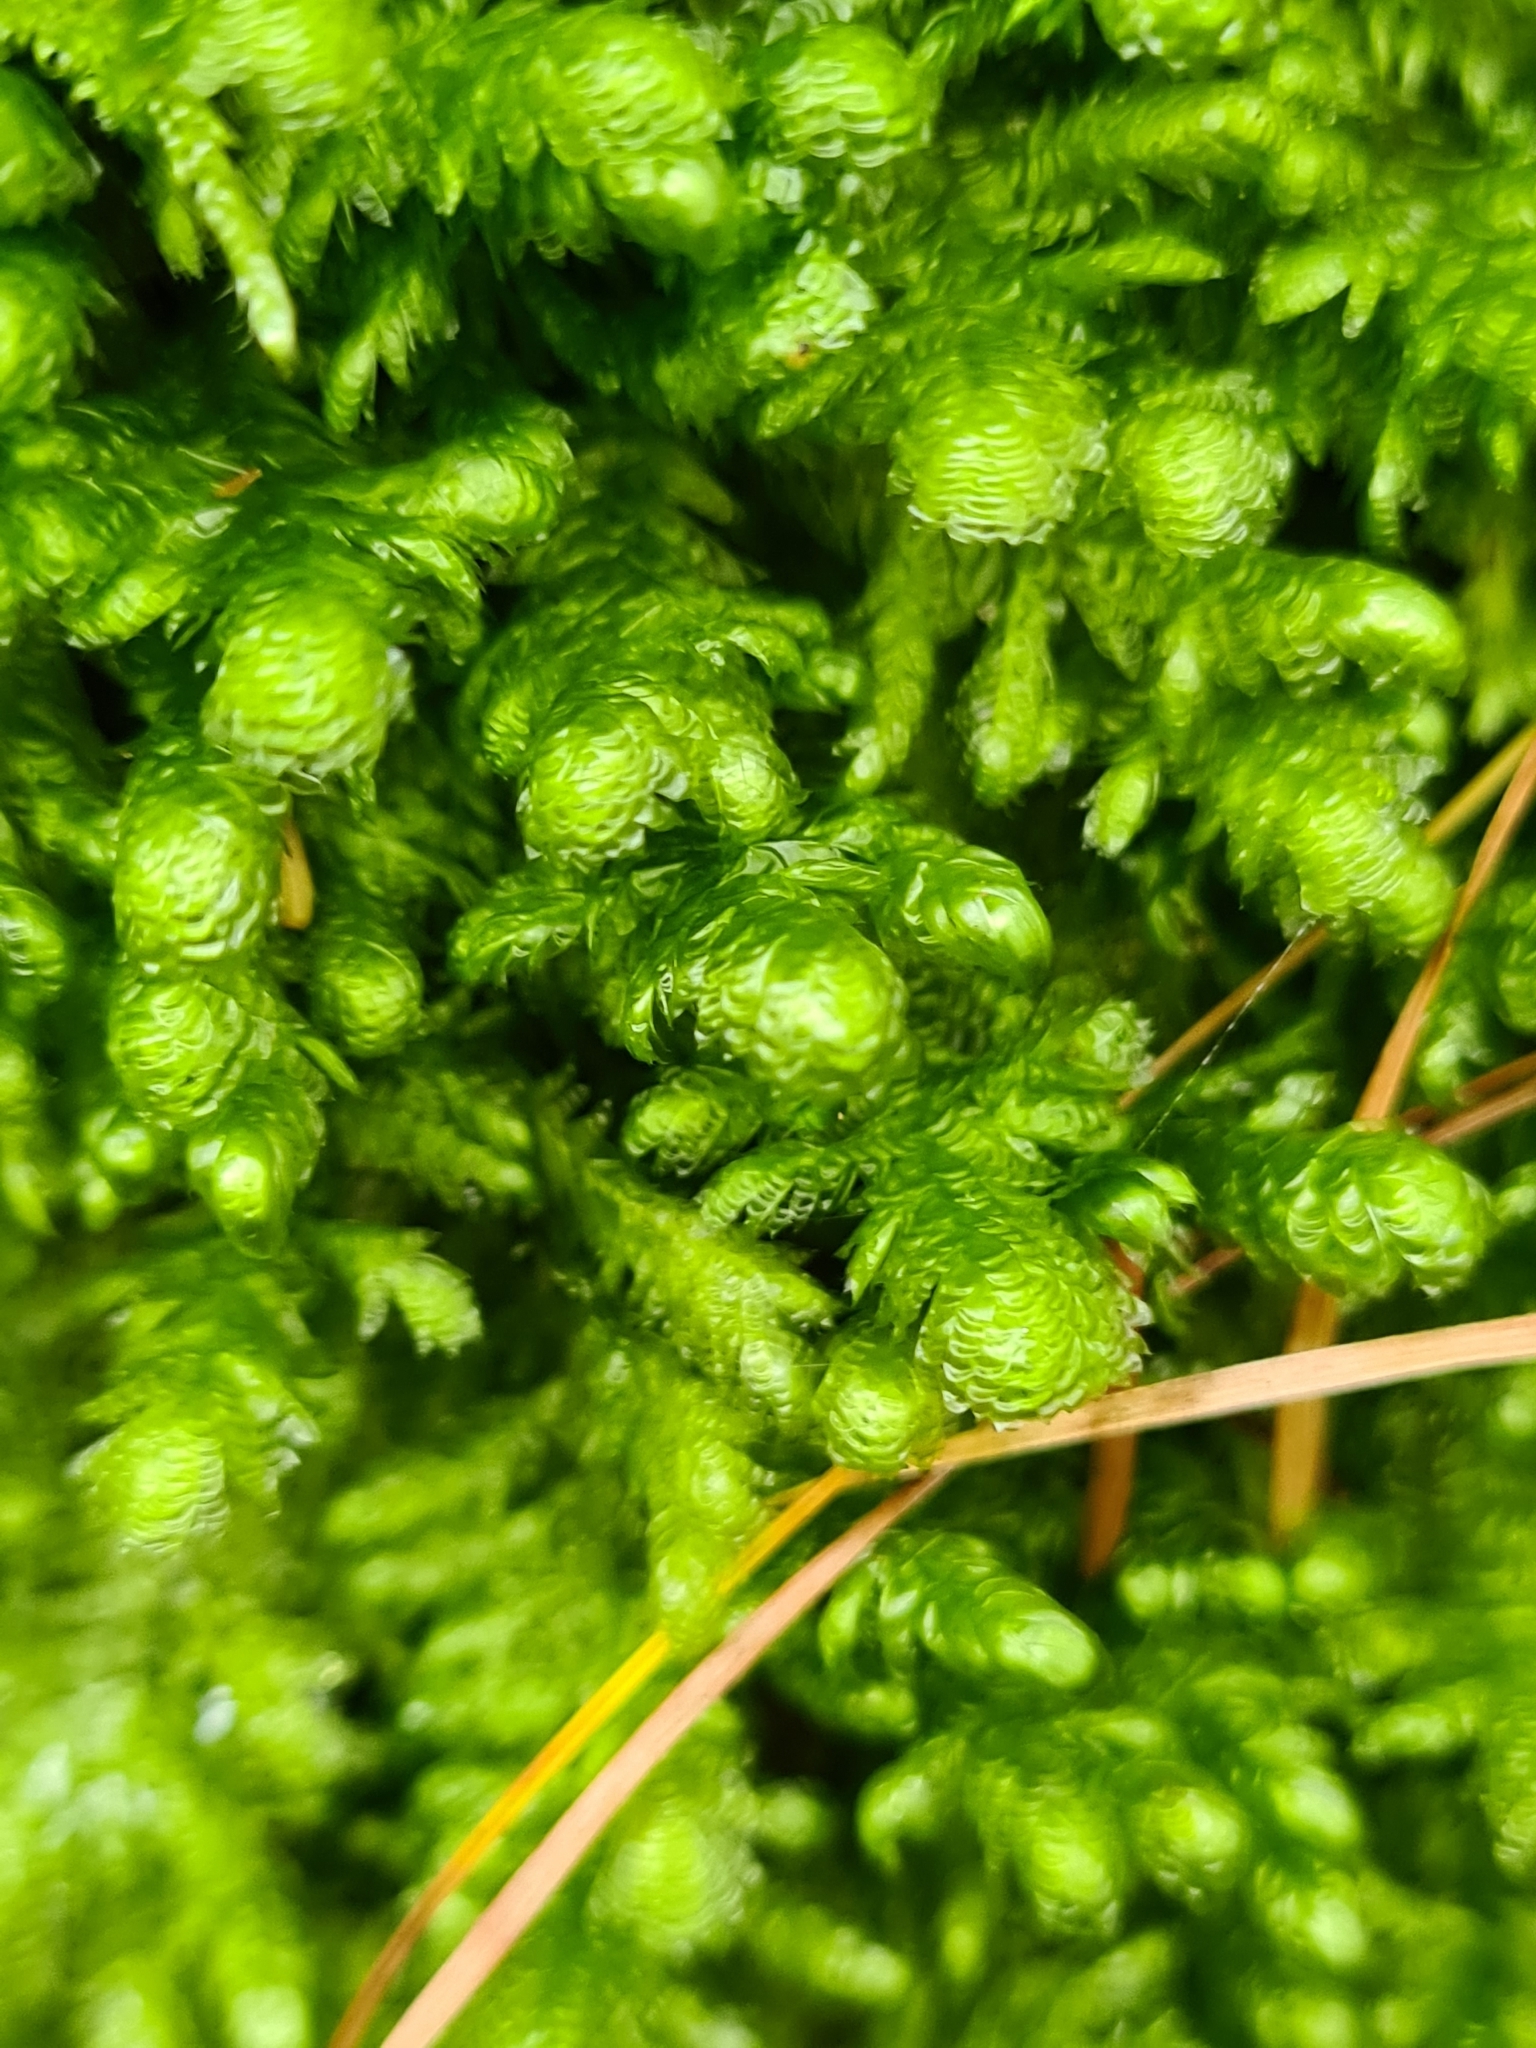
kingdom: Plantae
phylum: Bryophyta
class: Bryopsida
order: Hypnales
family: Neckeraceae
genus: Exsertotheca
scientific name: Exsertotheca crispa
